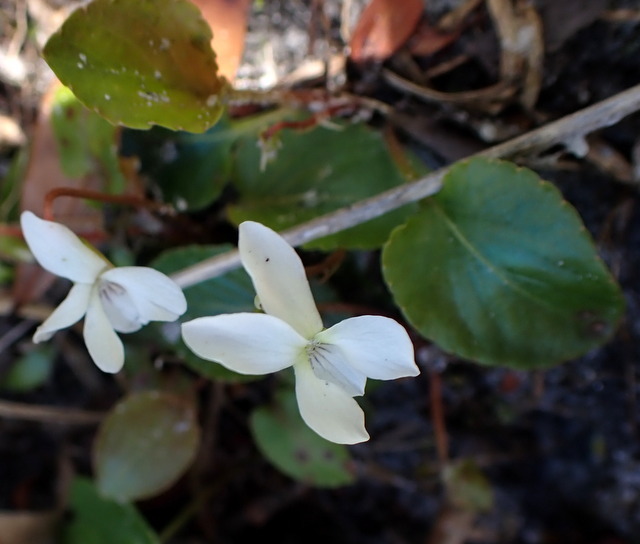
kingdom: Plantae
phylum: Tracheophyta
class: Magnoliopsida
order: Malpighiales
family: Violaceae
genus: Viola
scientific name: Viola primulifolia
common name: Primrose-leaf violet
